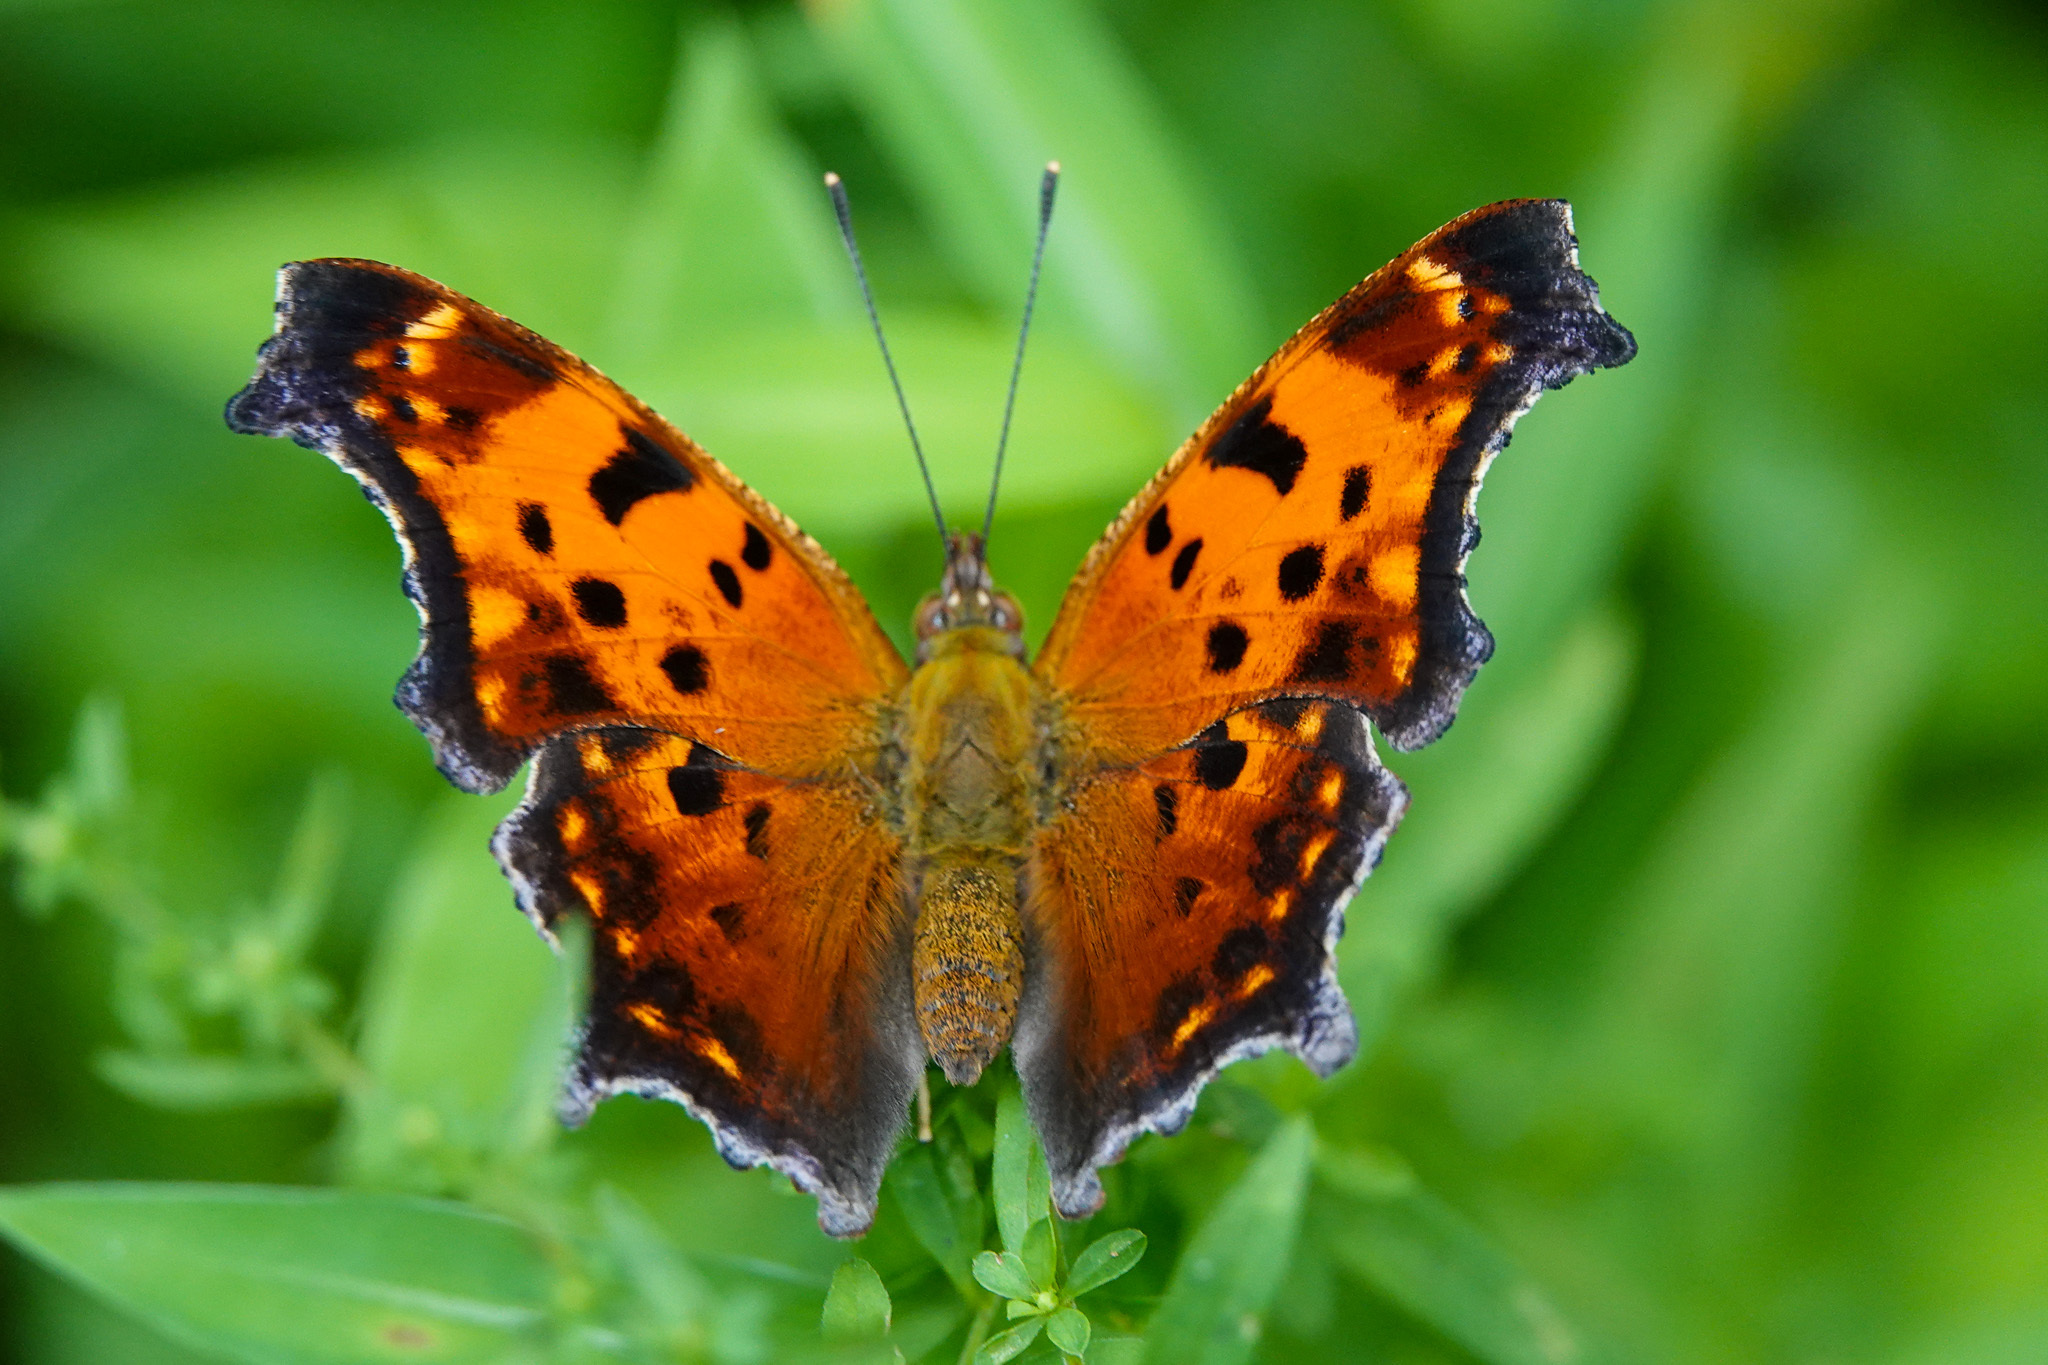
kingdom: Animalia
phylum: Arthropoda
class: Insecta
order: Lepidoptera
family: Nymphalidae
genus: Polygonia
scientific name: Polygonia comma
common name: Eastern comma
